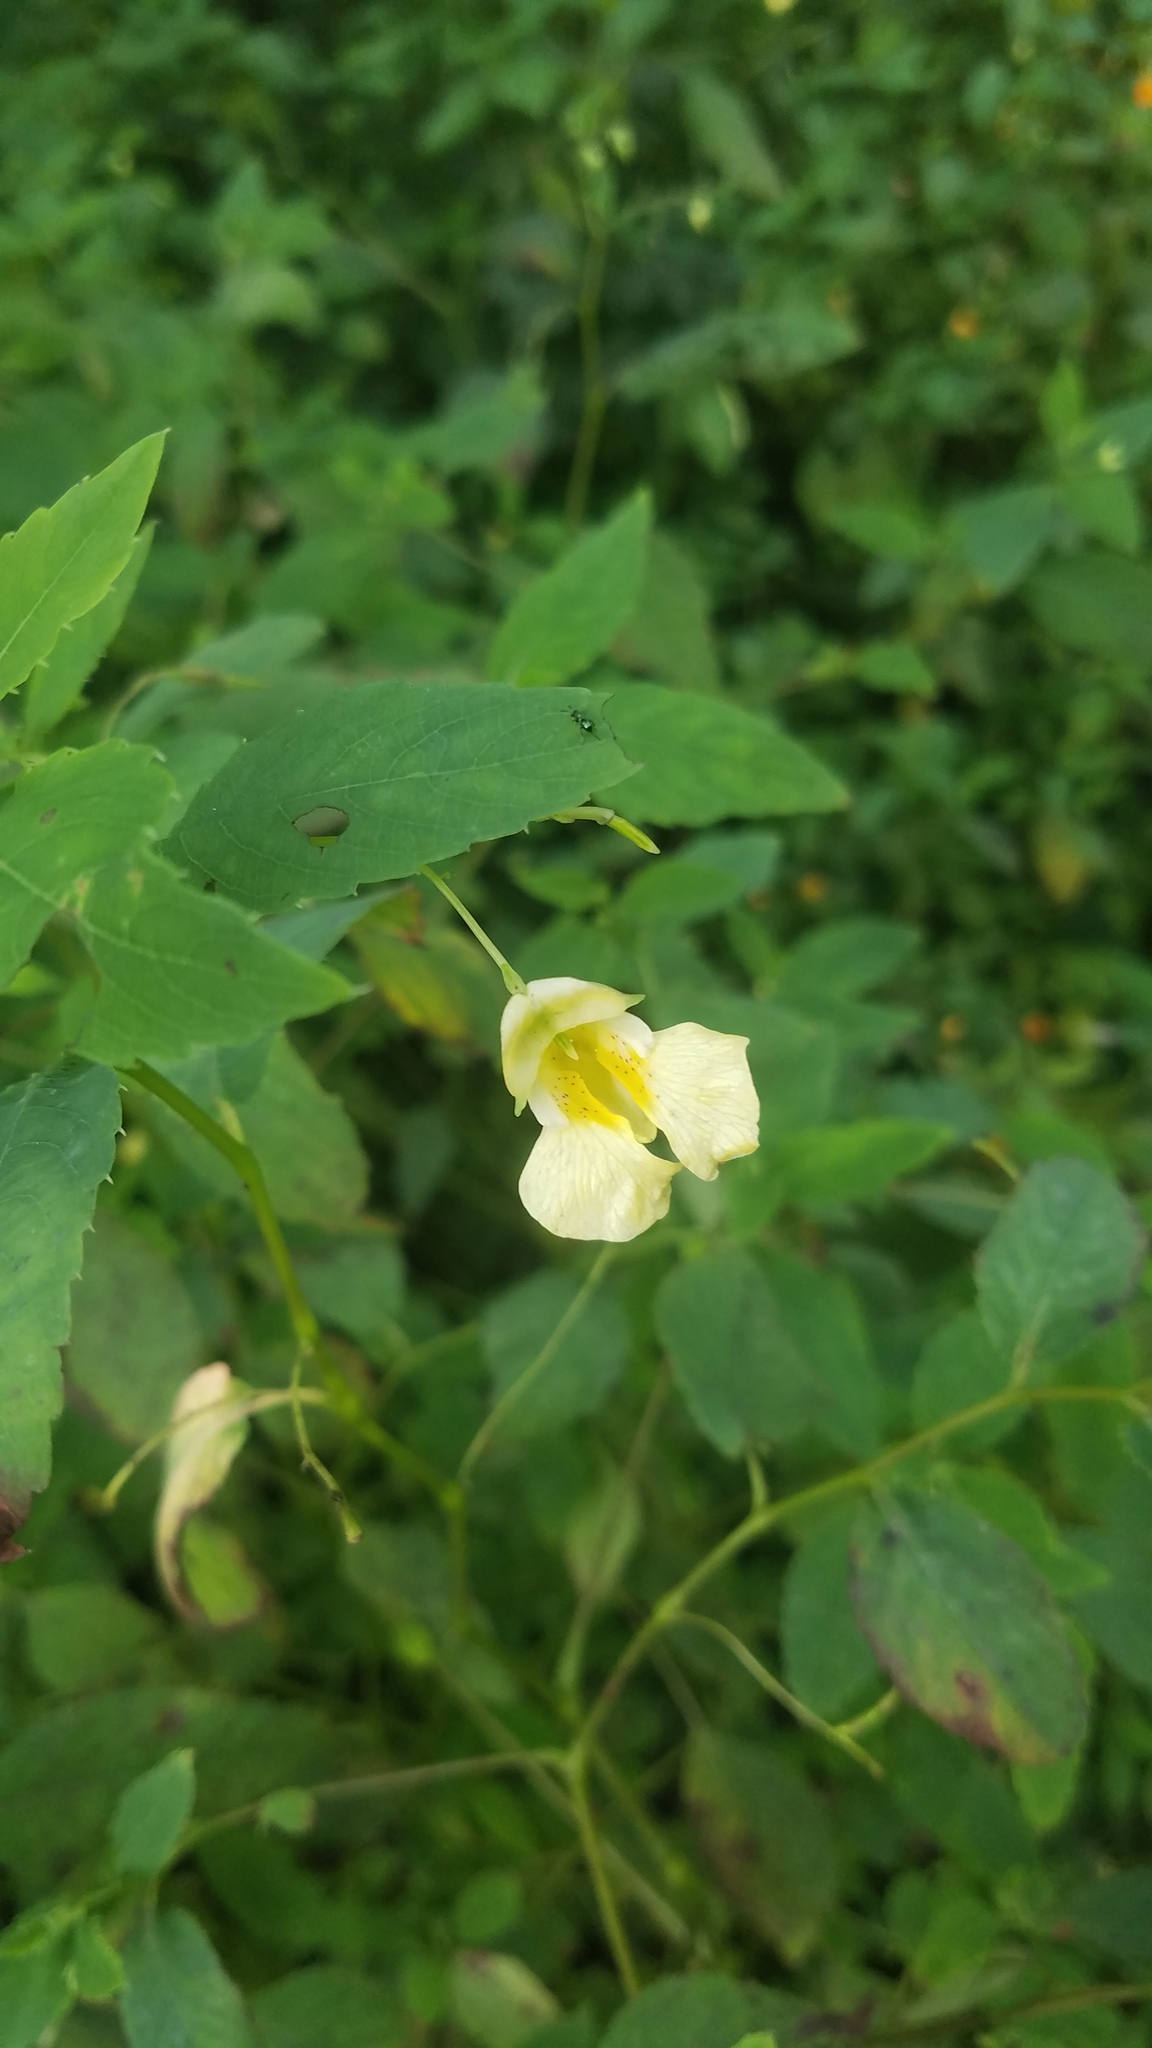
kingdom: Plantae
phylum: Tracheophyta
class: Magnoliopsida
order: Ericales
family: Balsaminaceae
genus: Impatiens
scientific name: Impatiens pallida
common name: Pale snapweed
